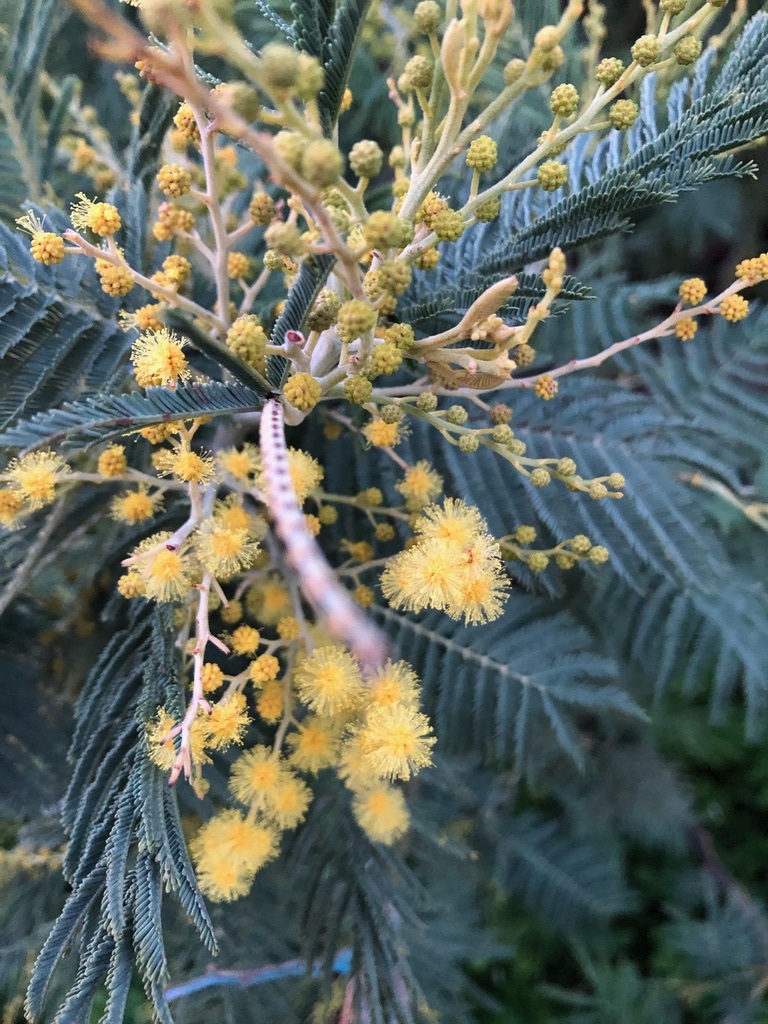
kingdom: Plantae
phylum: Tracheophyta
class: Magnoliopsida
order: Fabales
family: Fabaceae
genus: Acacia
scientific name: Acacia dealbata
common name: Silver wattle
